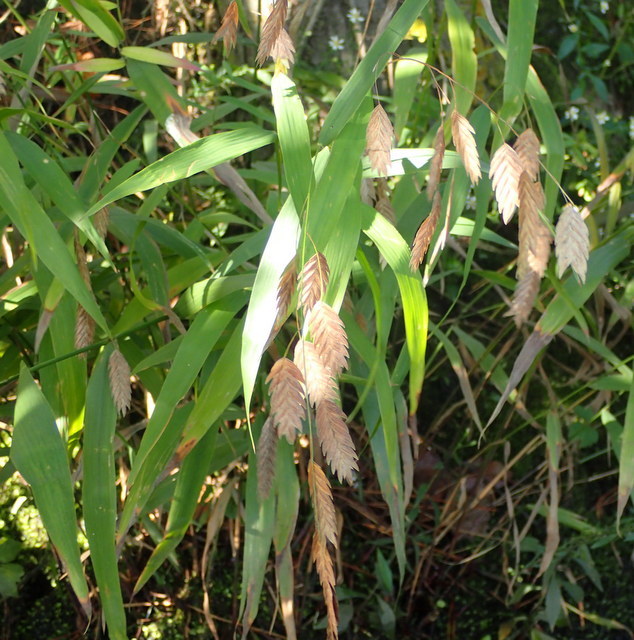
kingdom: Plantae
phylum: Tracheophyta
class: Liliopsida
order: Poales
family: Poaceae
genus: Chasmanthium
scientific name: Chasmanthium latifolium
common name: Broad-leaved chasmanthium
